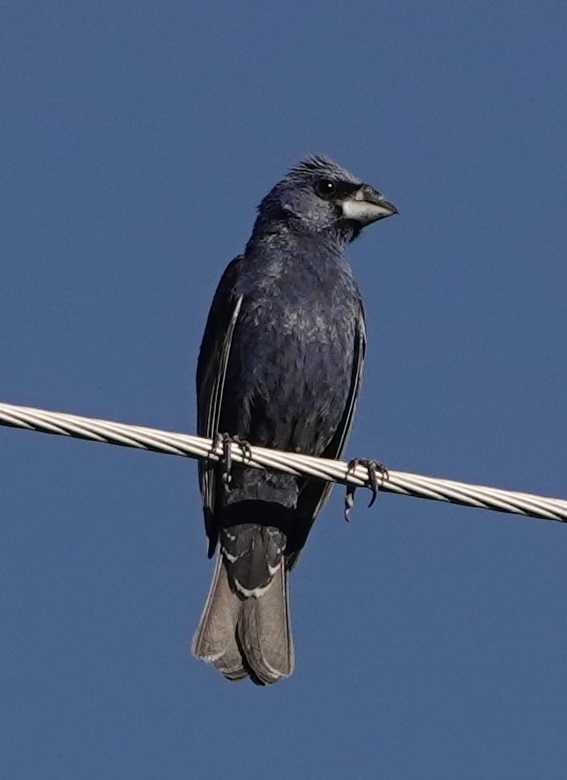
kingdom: Animalia
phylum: Chordata
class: Aves
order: Passeriformes
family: Cardinalidae
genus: Passerina
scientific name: Passerina caerulea
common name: Blue grosbeak
